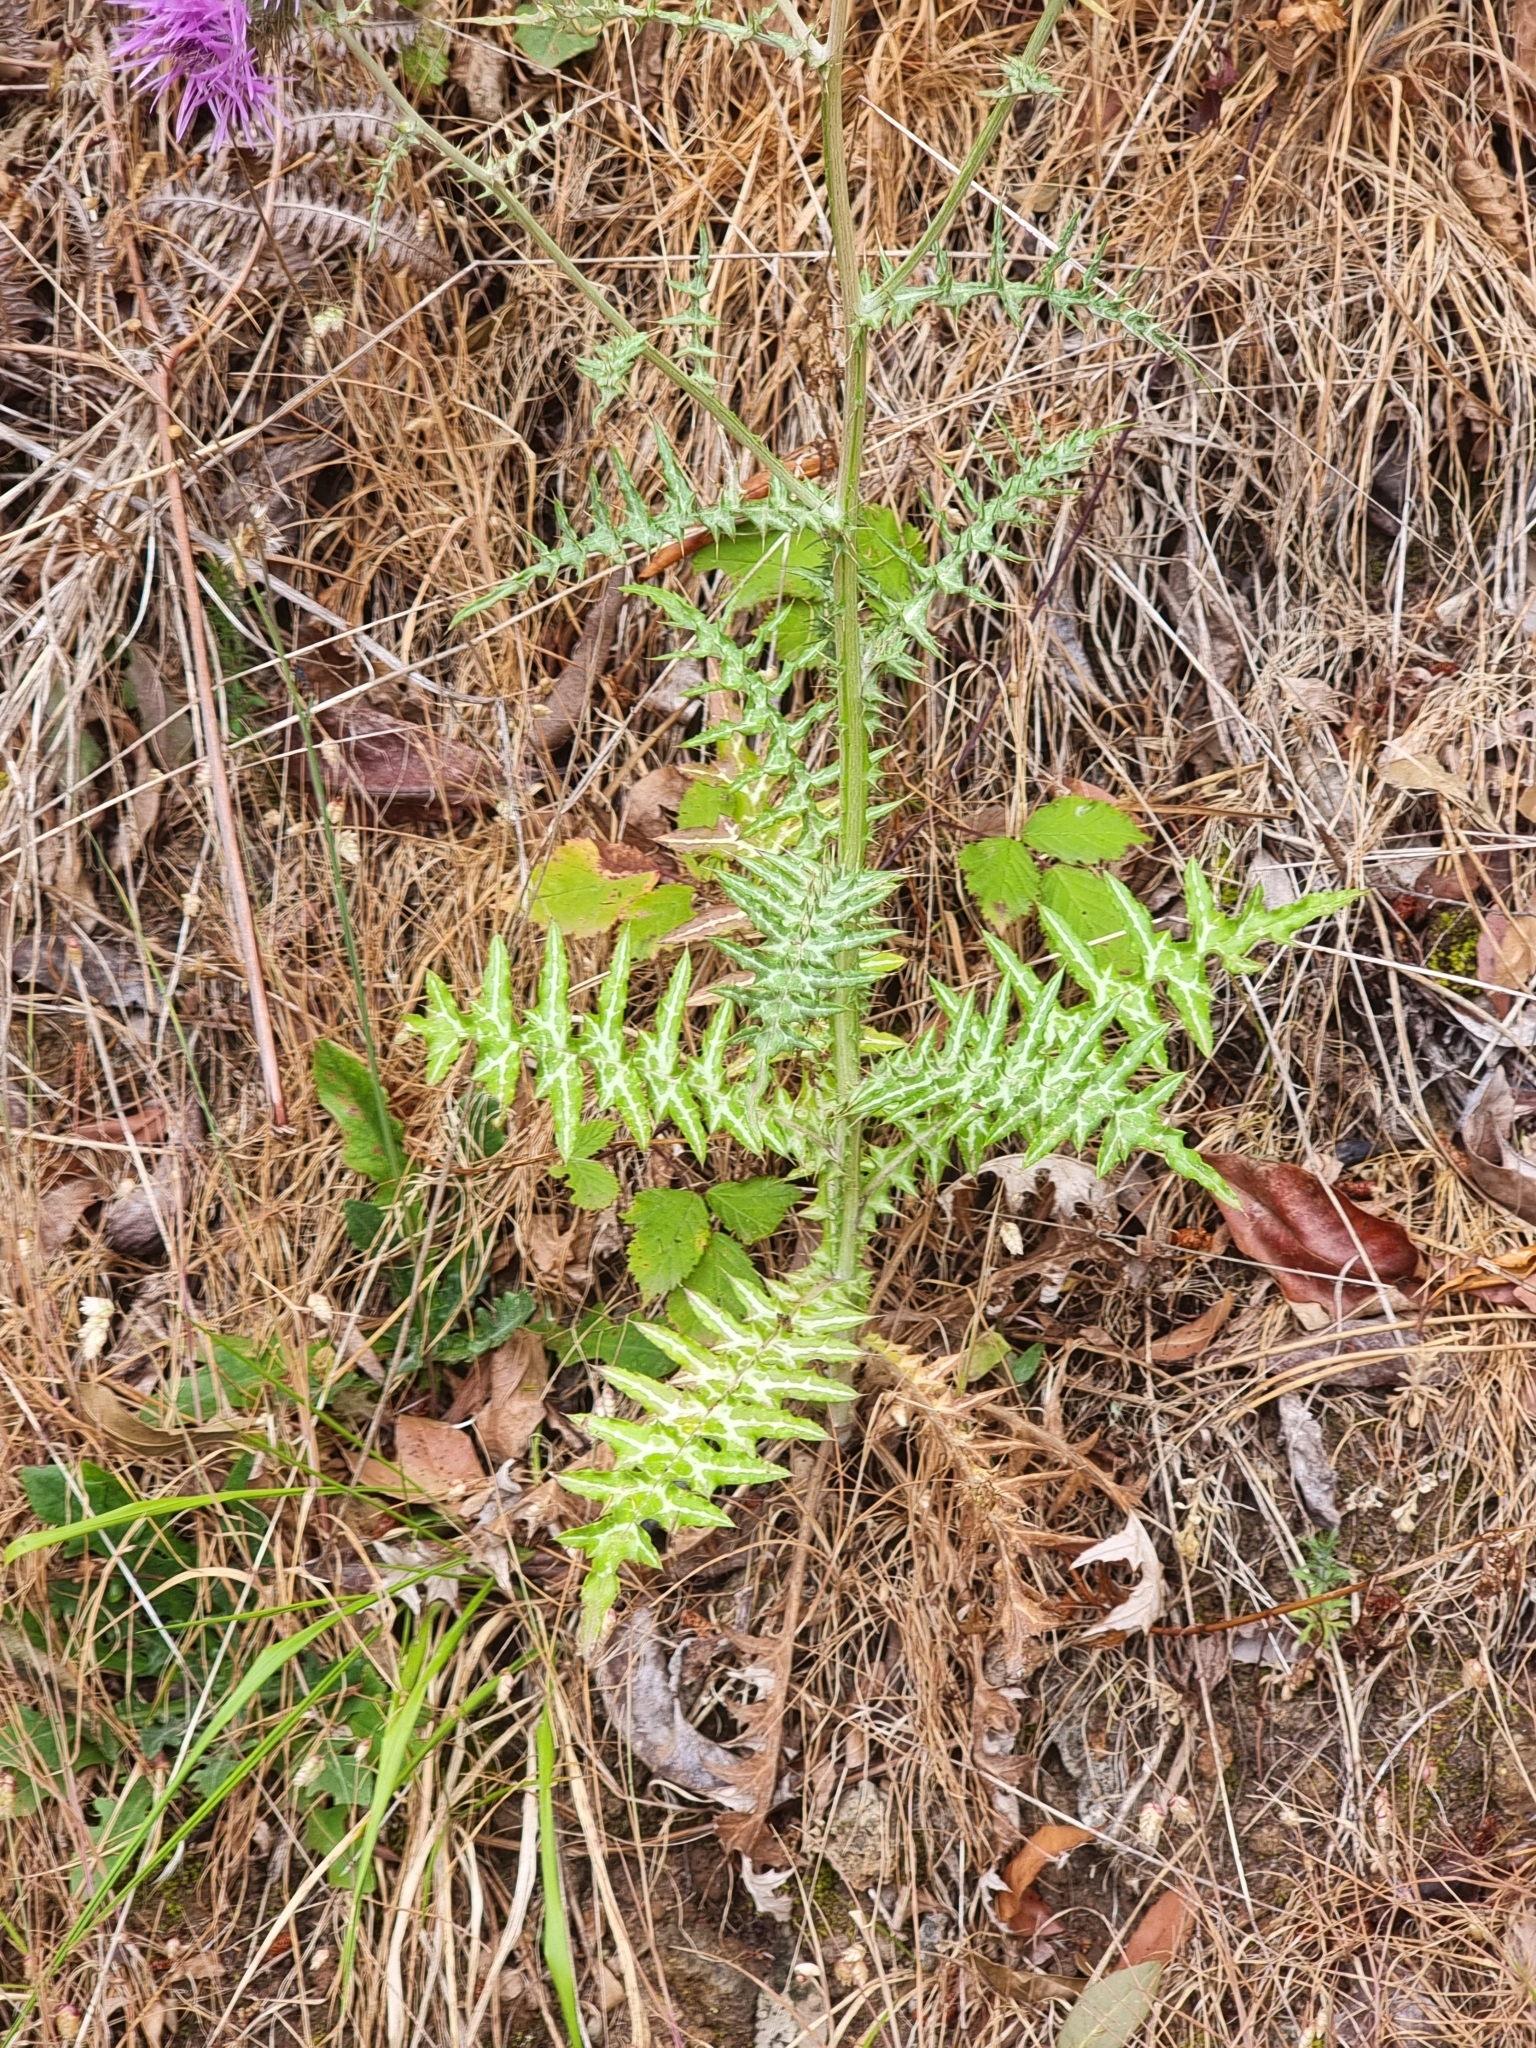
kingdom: Plantae
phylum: Tracheophyta
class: Magnoliopsida
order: Asterales
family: Asteraceae
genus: Galactites
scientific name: Galactites tomentosa
